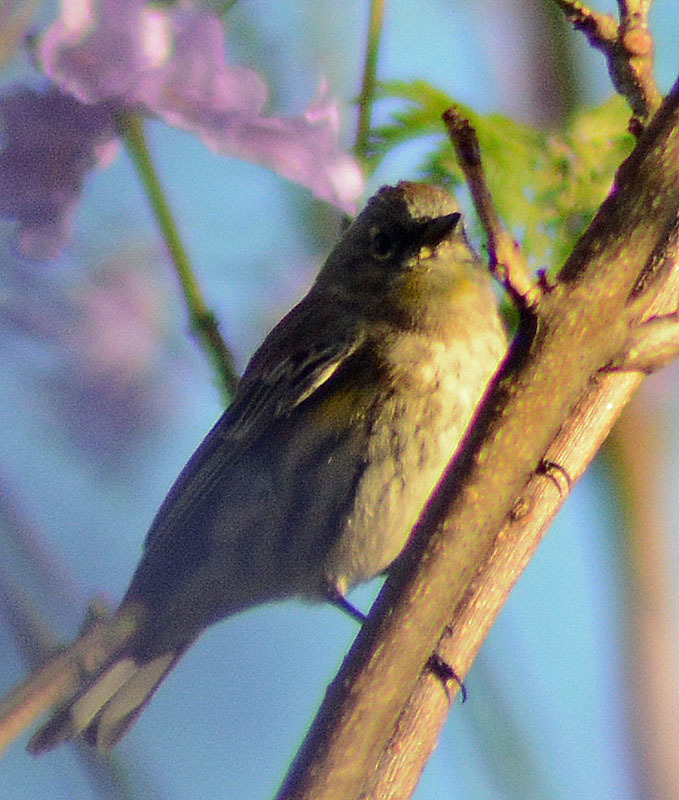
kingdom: Animalia
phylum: Chordata
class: Aves
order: Passeriformes
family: Parulidae
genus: Setophaga
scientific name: Setophaga coronata
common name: Myrtle warbler
